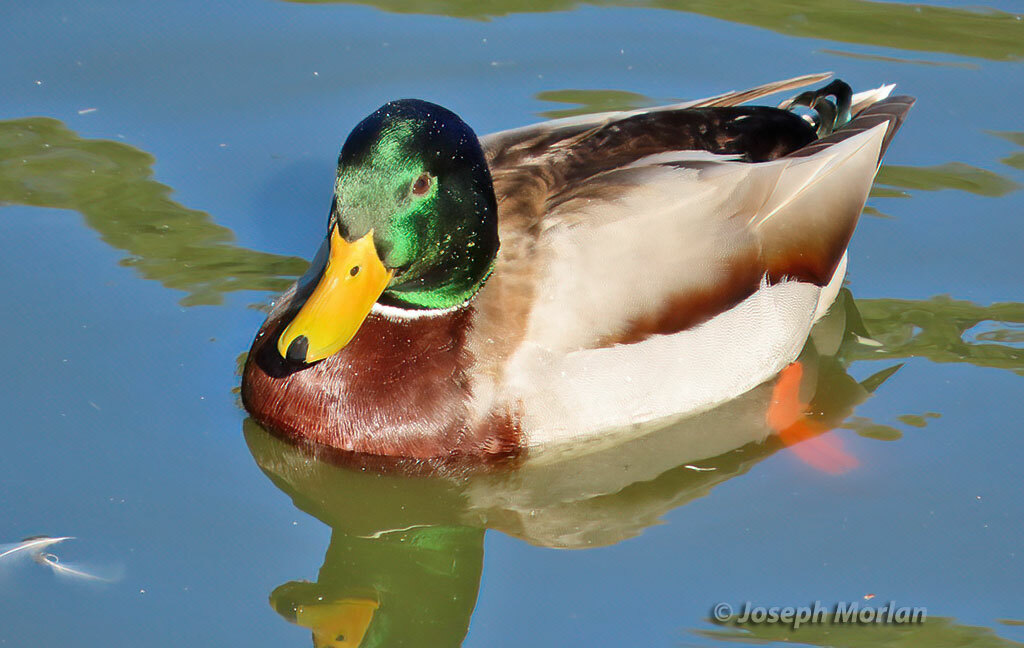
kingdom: Animalia
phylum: Chordata
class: Aves
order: Anseriformes
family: Anatidae
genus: Anas
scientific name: Anas platyrhynchos
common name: Mallard
